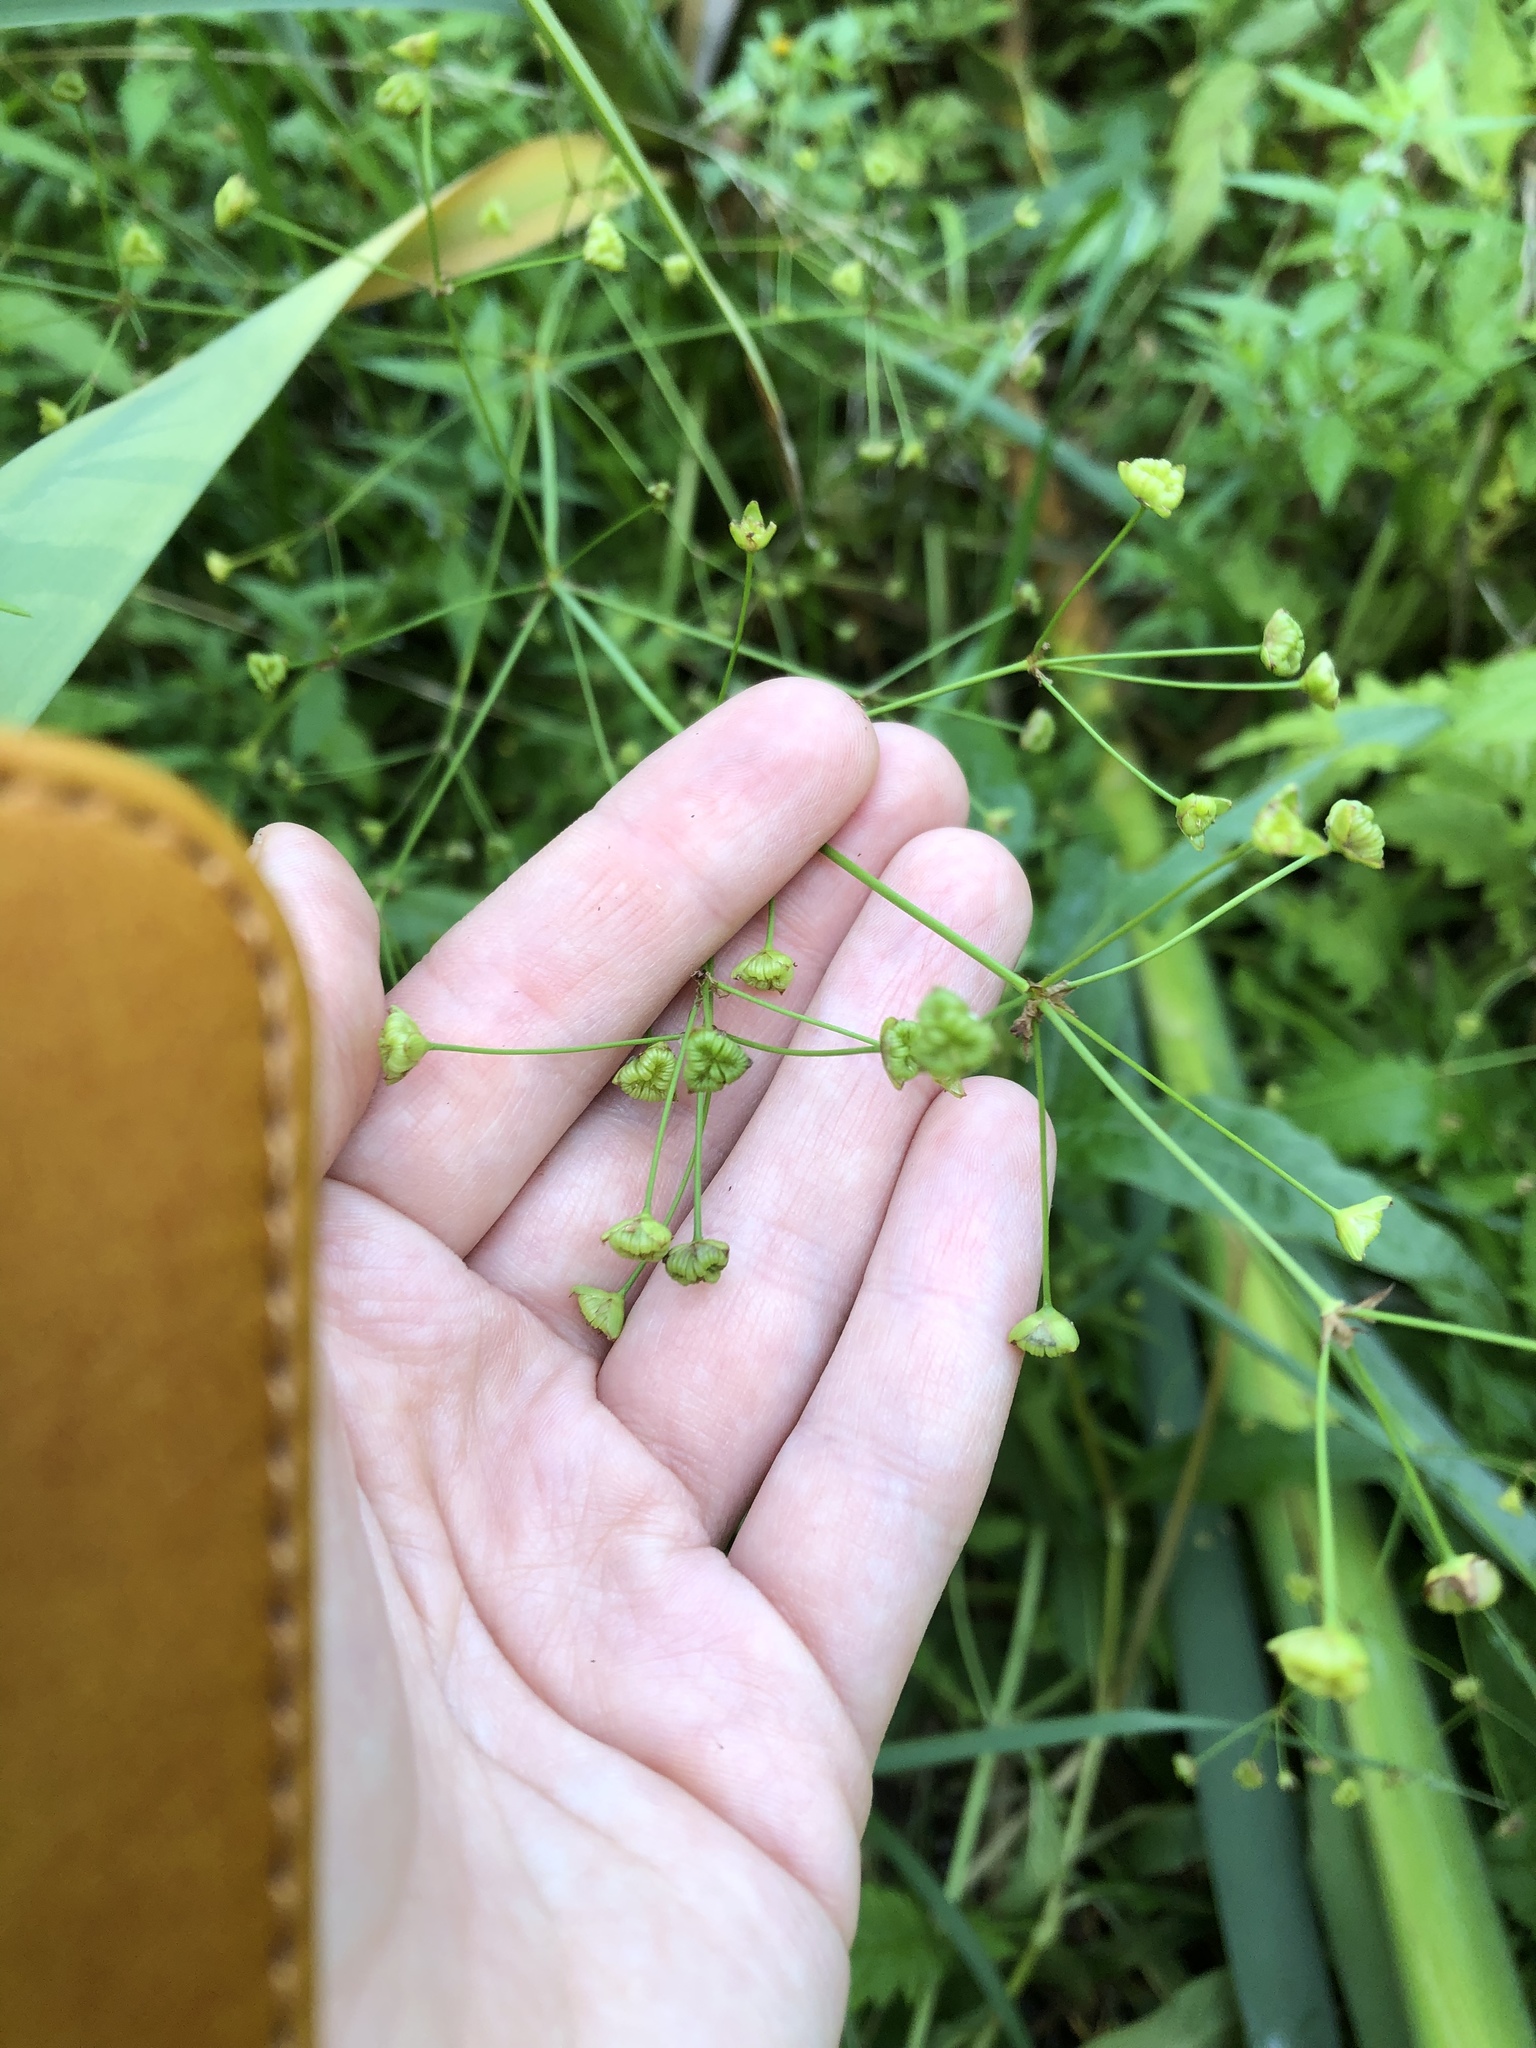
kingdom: Plantae
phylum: Tracheophyta
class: Liliopsida
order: Alismatales
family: Alismataceae
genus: Alisma
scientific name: Alisma plantago-aquatica
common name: Water-plantain
